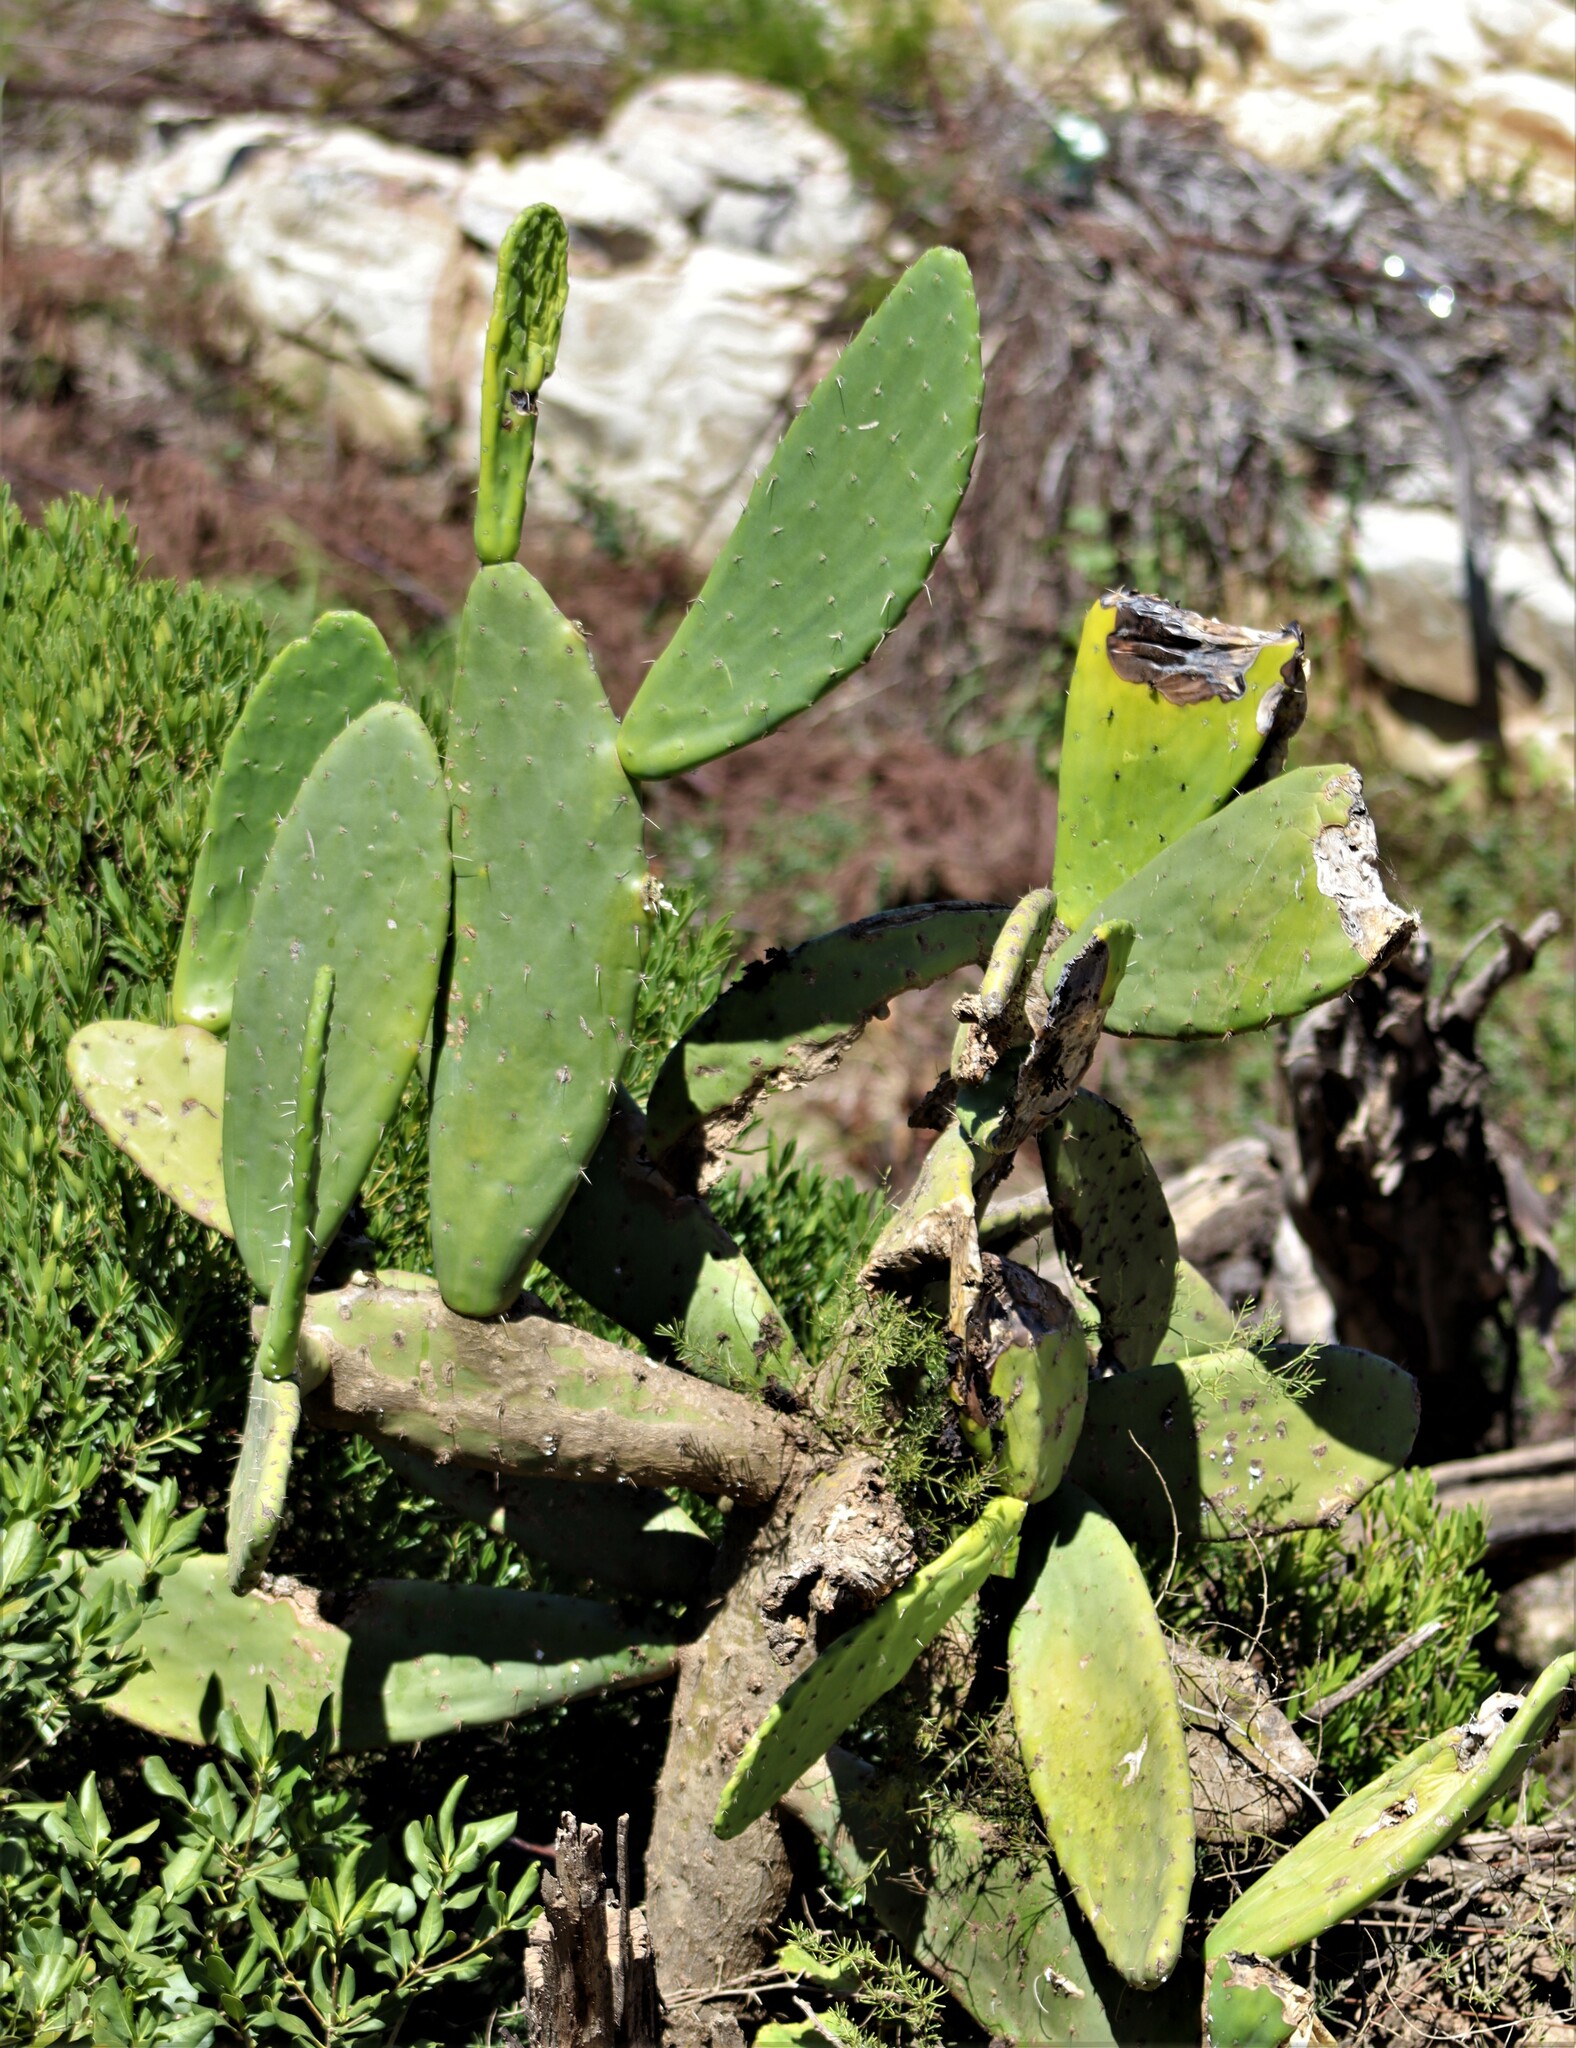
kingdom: Plantae
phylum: Tracheophyta
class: Magnoliopsida
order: Caryophyllales
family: Cactaceae
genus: Opuntia
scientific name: Opuntia ficus-indica
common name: Barbary fig
